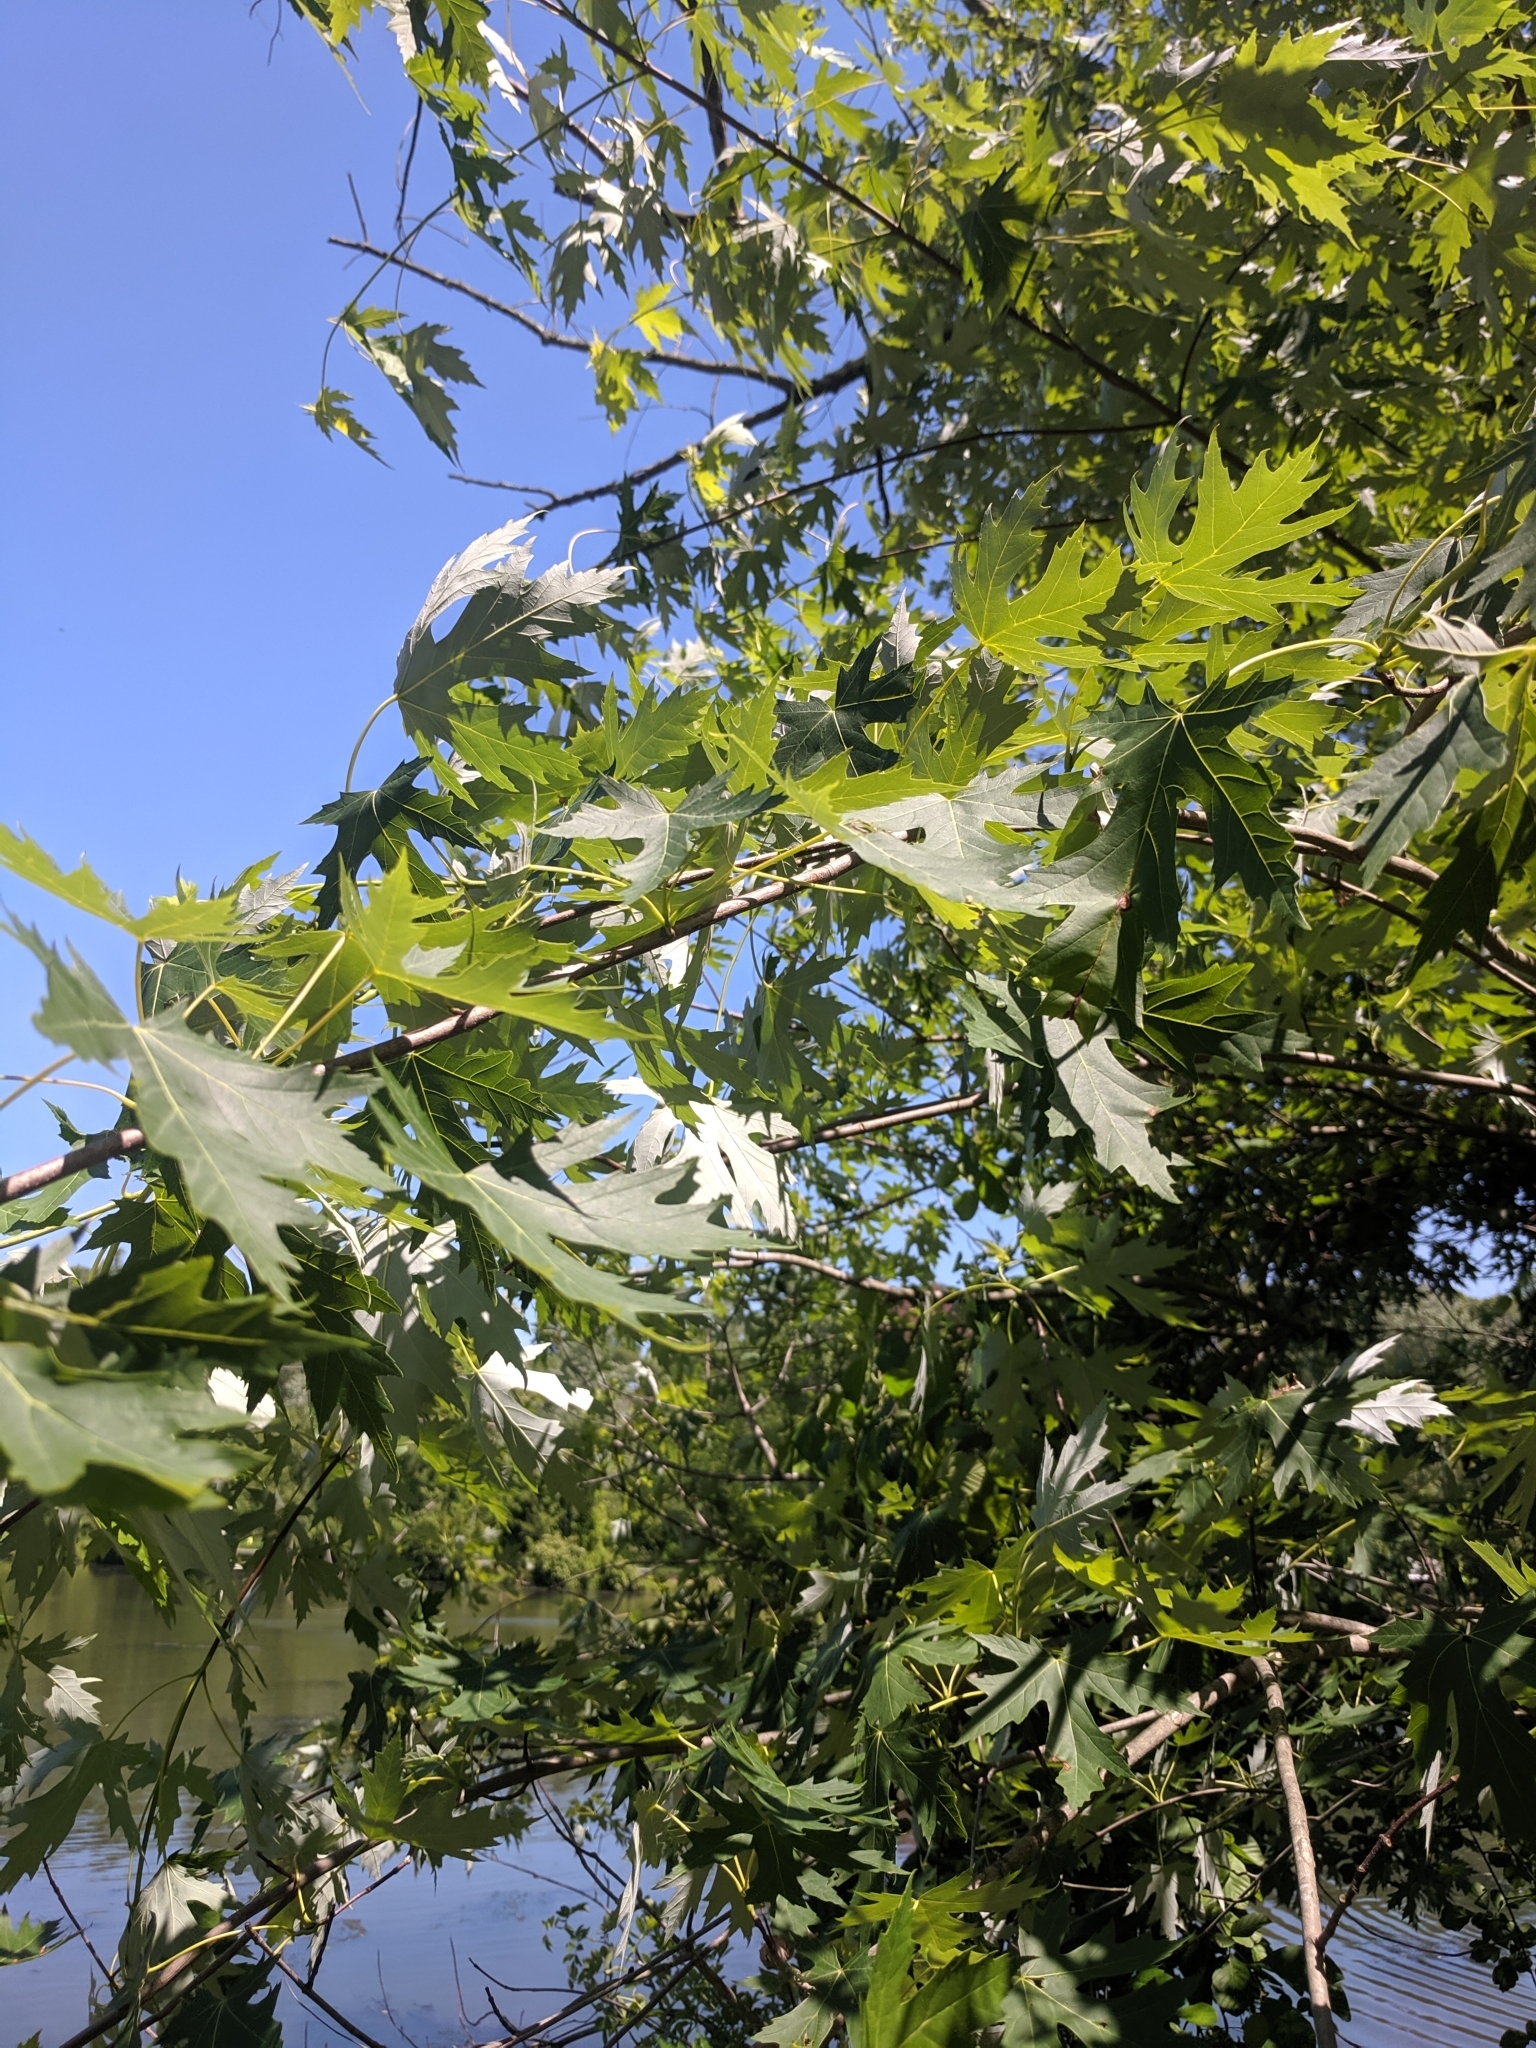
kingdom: Plantae
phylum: Tracheophyta
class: Magnoliopsida
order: Sapindales
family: Sapindaceae
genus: Acer
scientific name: Acer saccharinum
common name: Silver maple
